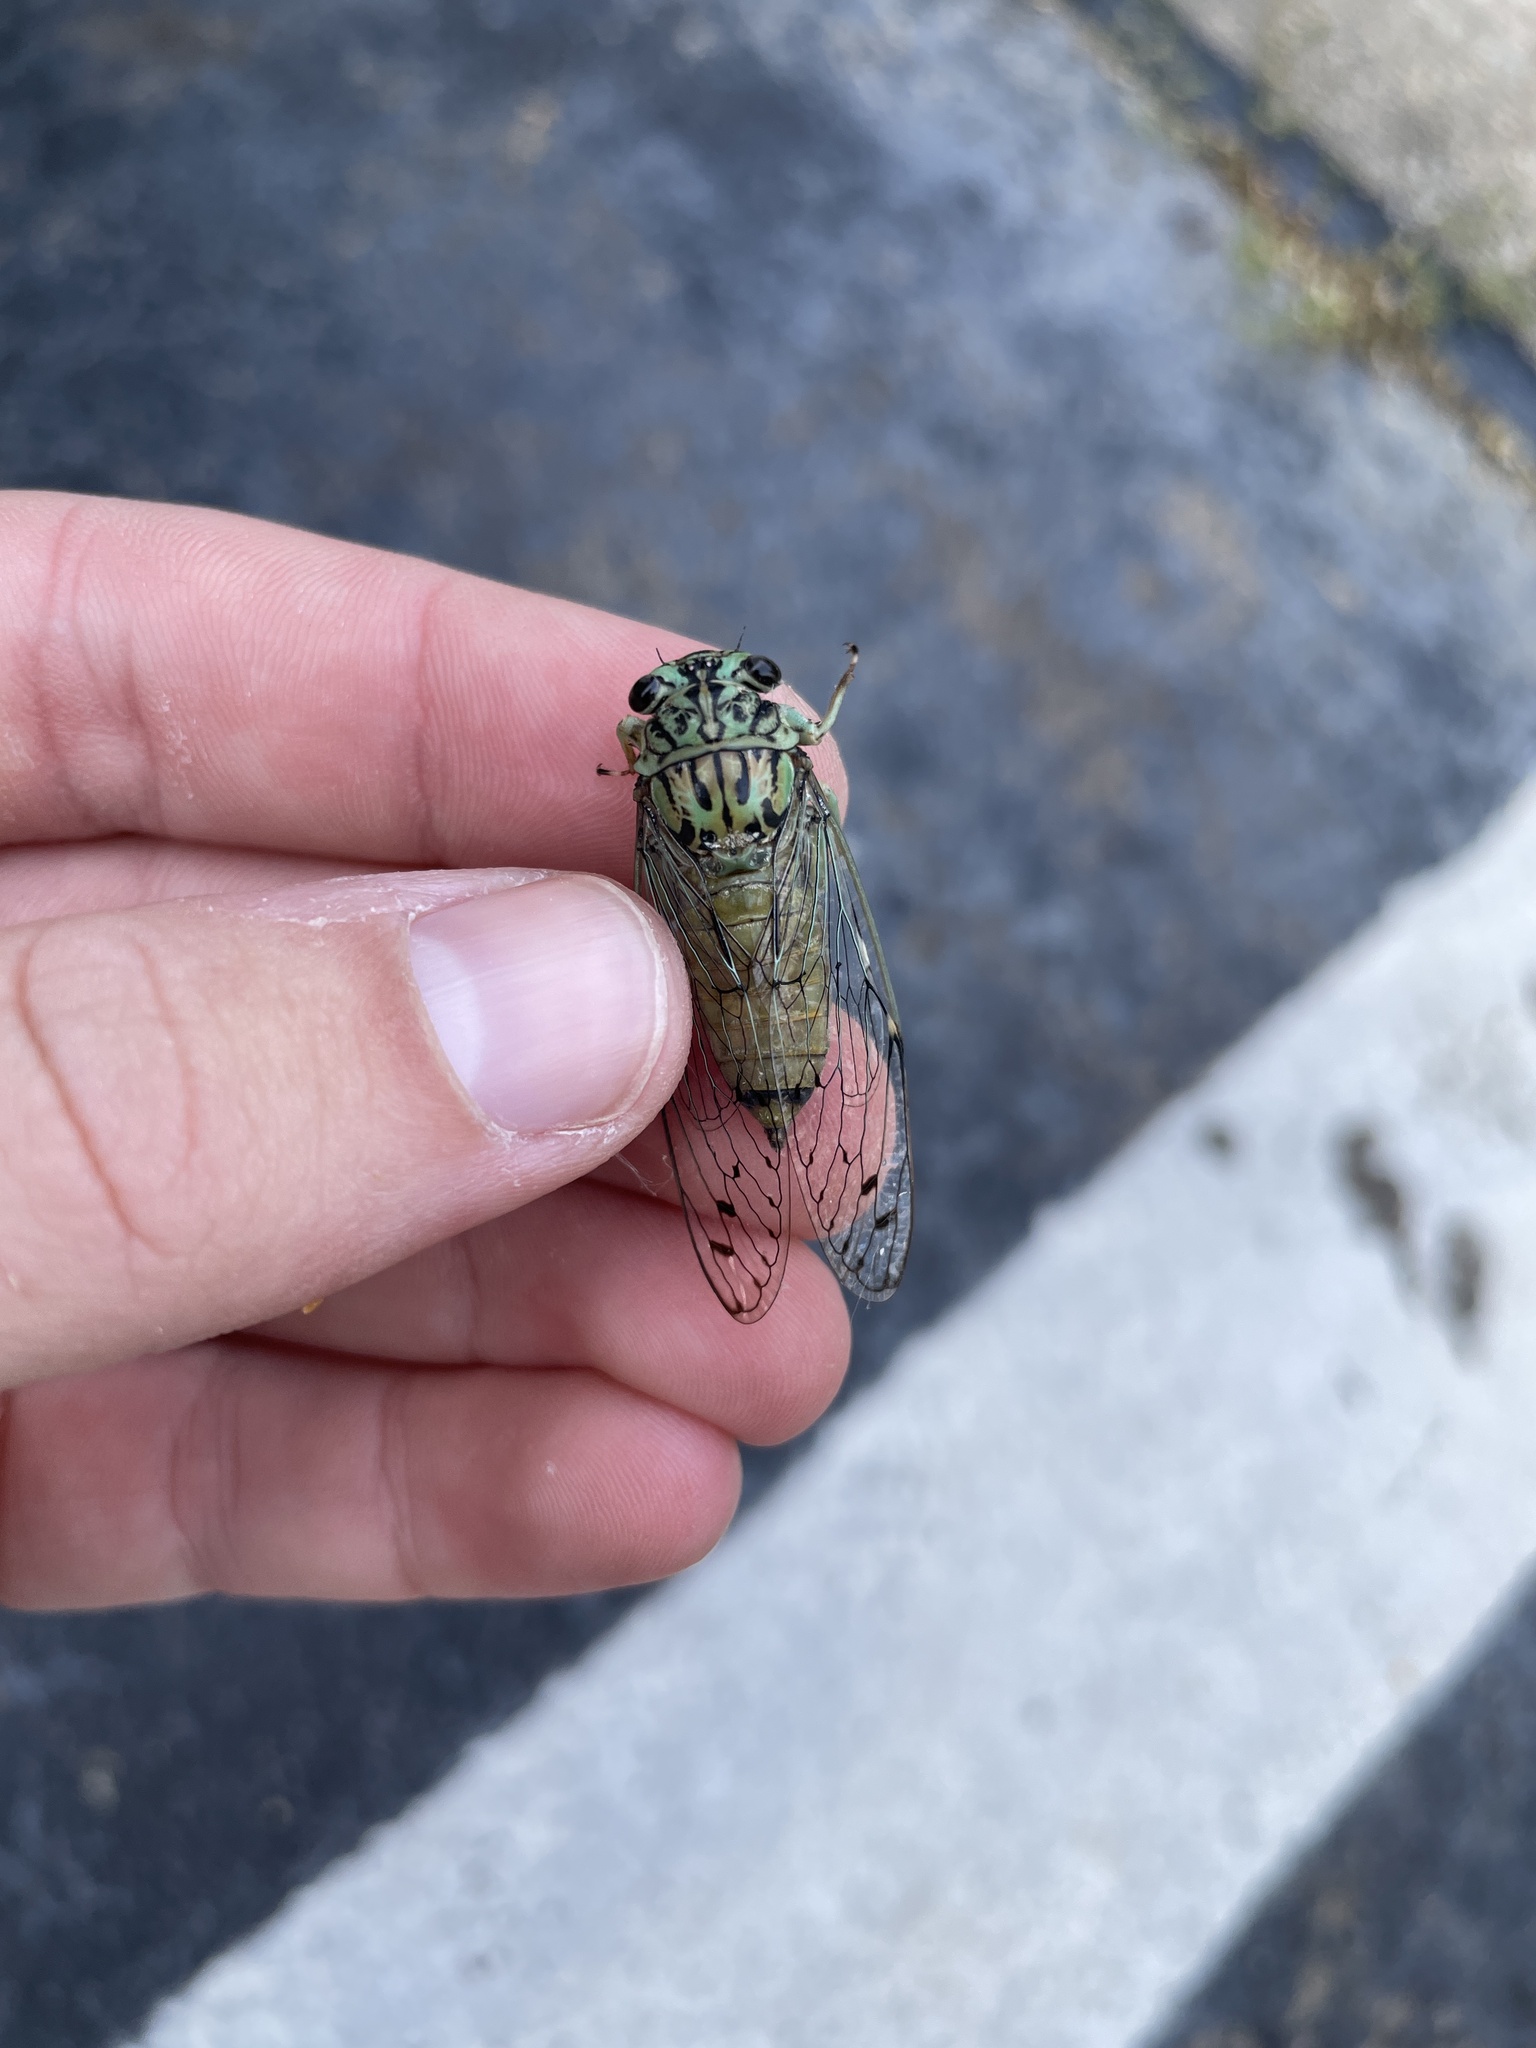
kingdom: Animalia
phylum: Arthropoda
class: Insecta
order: Hemiptera
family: Cicadidae
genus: Neocicada
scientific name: Neocicada hieroglyphica
